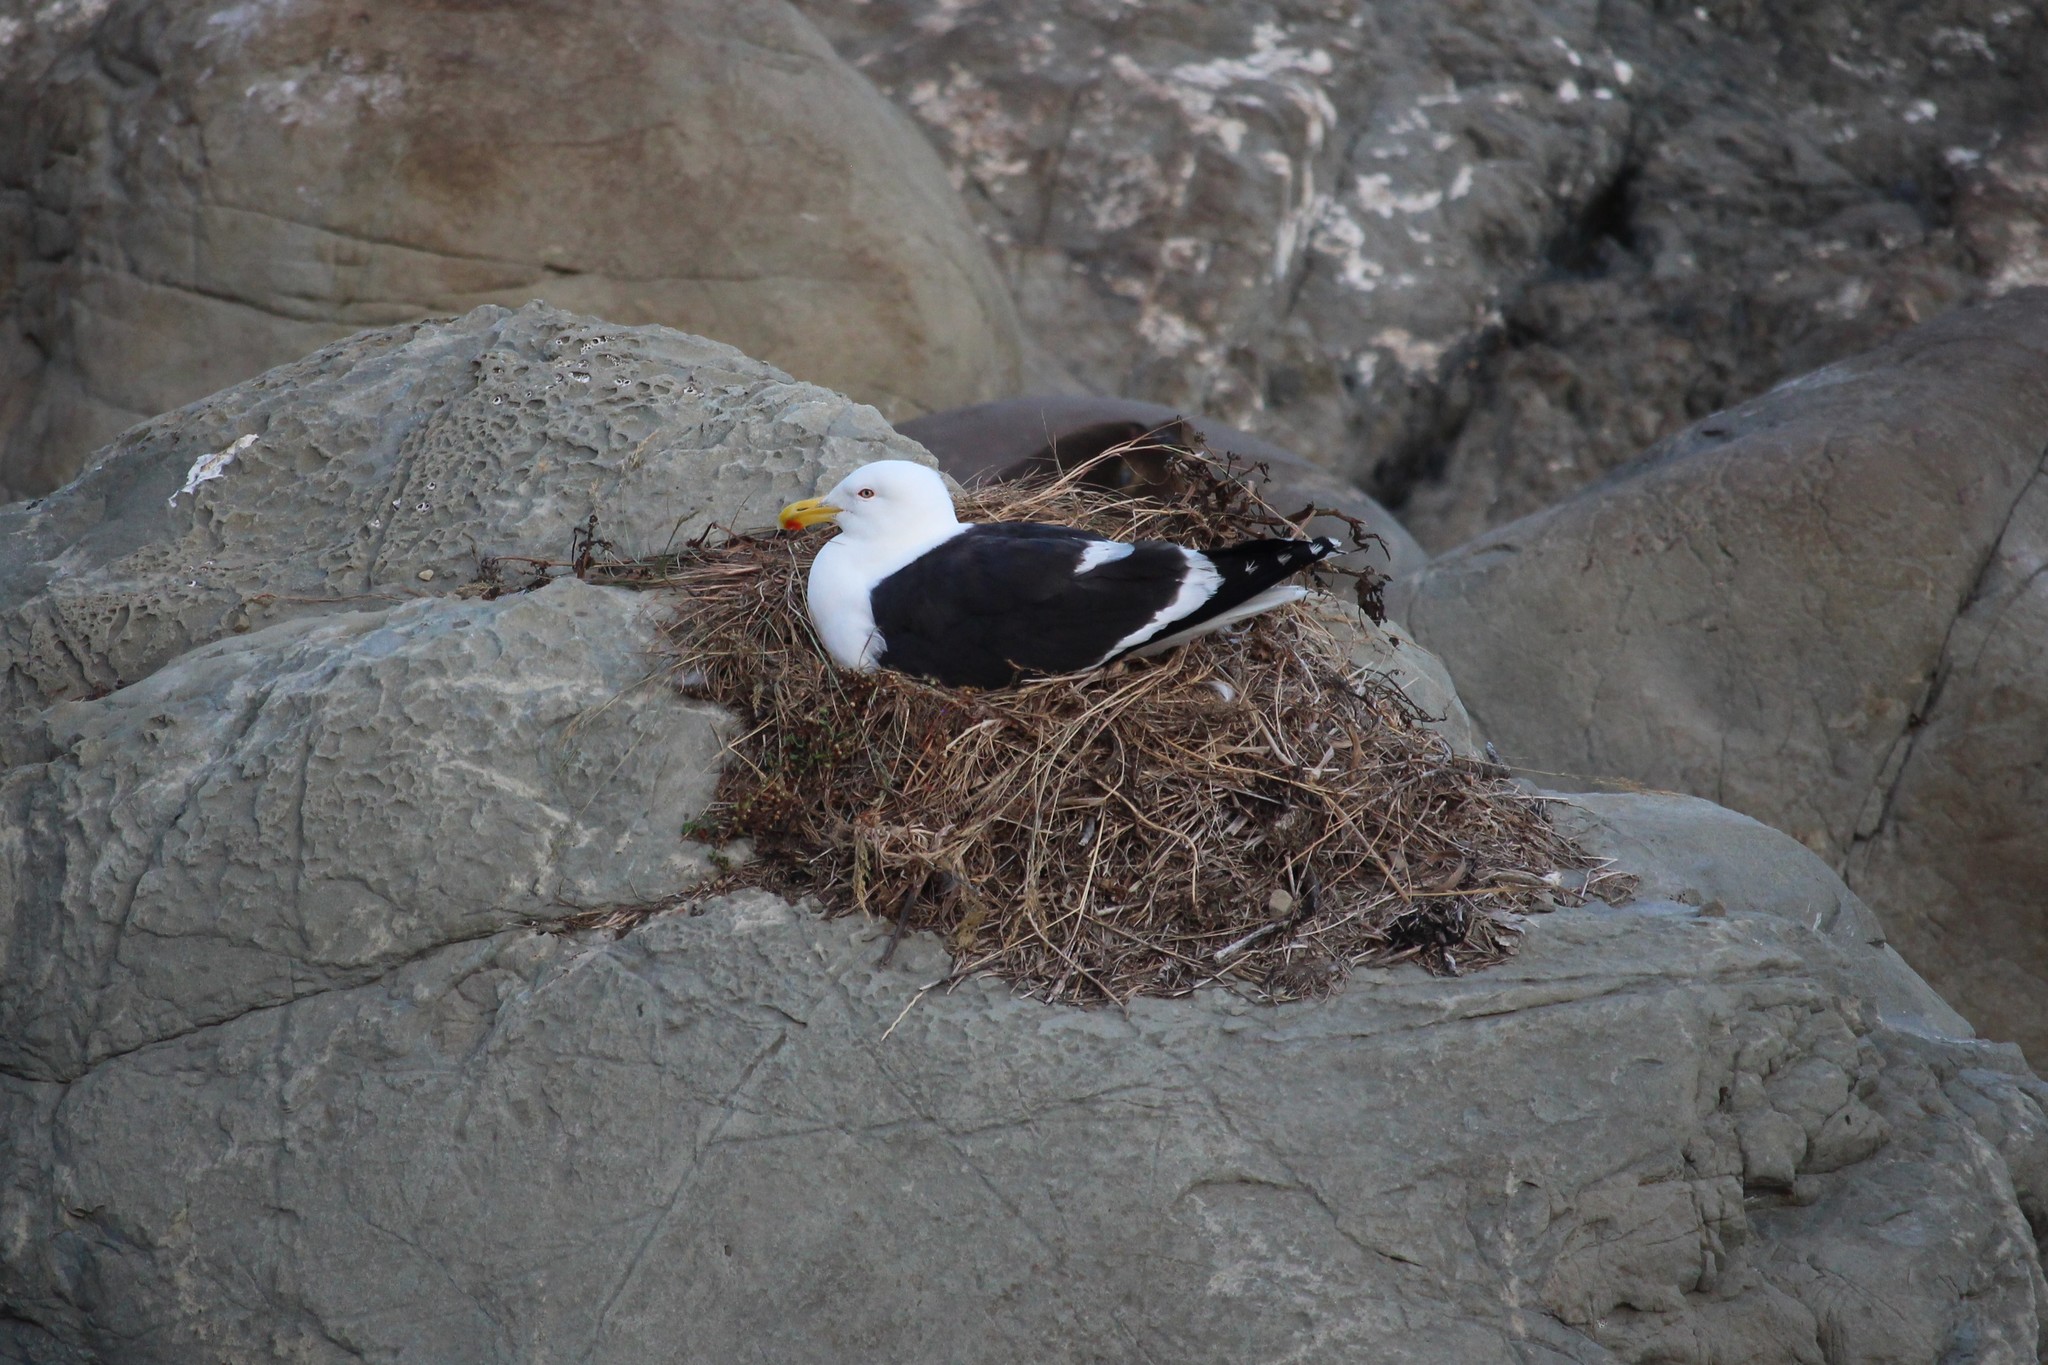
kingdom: Animalia
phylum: Chordata
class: Aves
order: Charadriiformes
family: Laridae
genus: Larus
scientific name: Larus dominicanus
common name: Kelp gull
